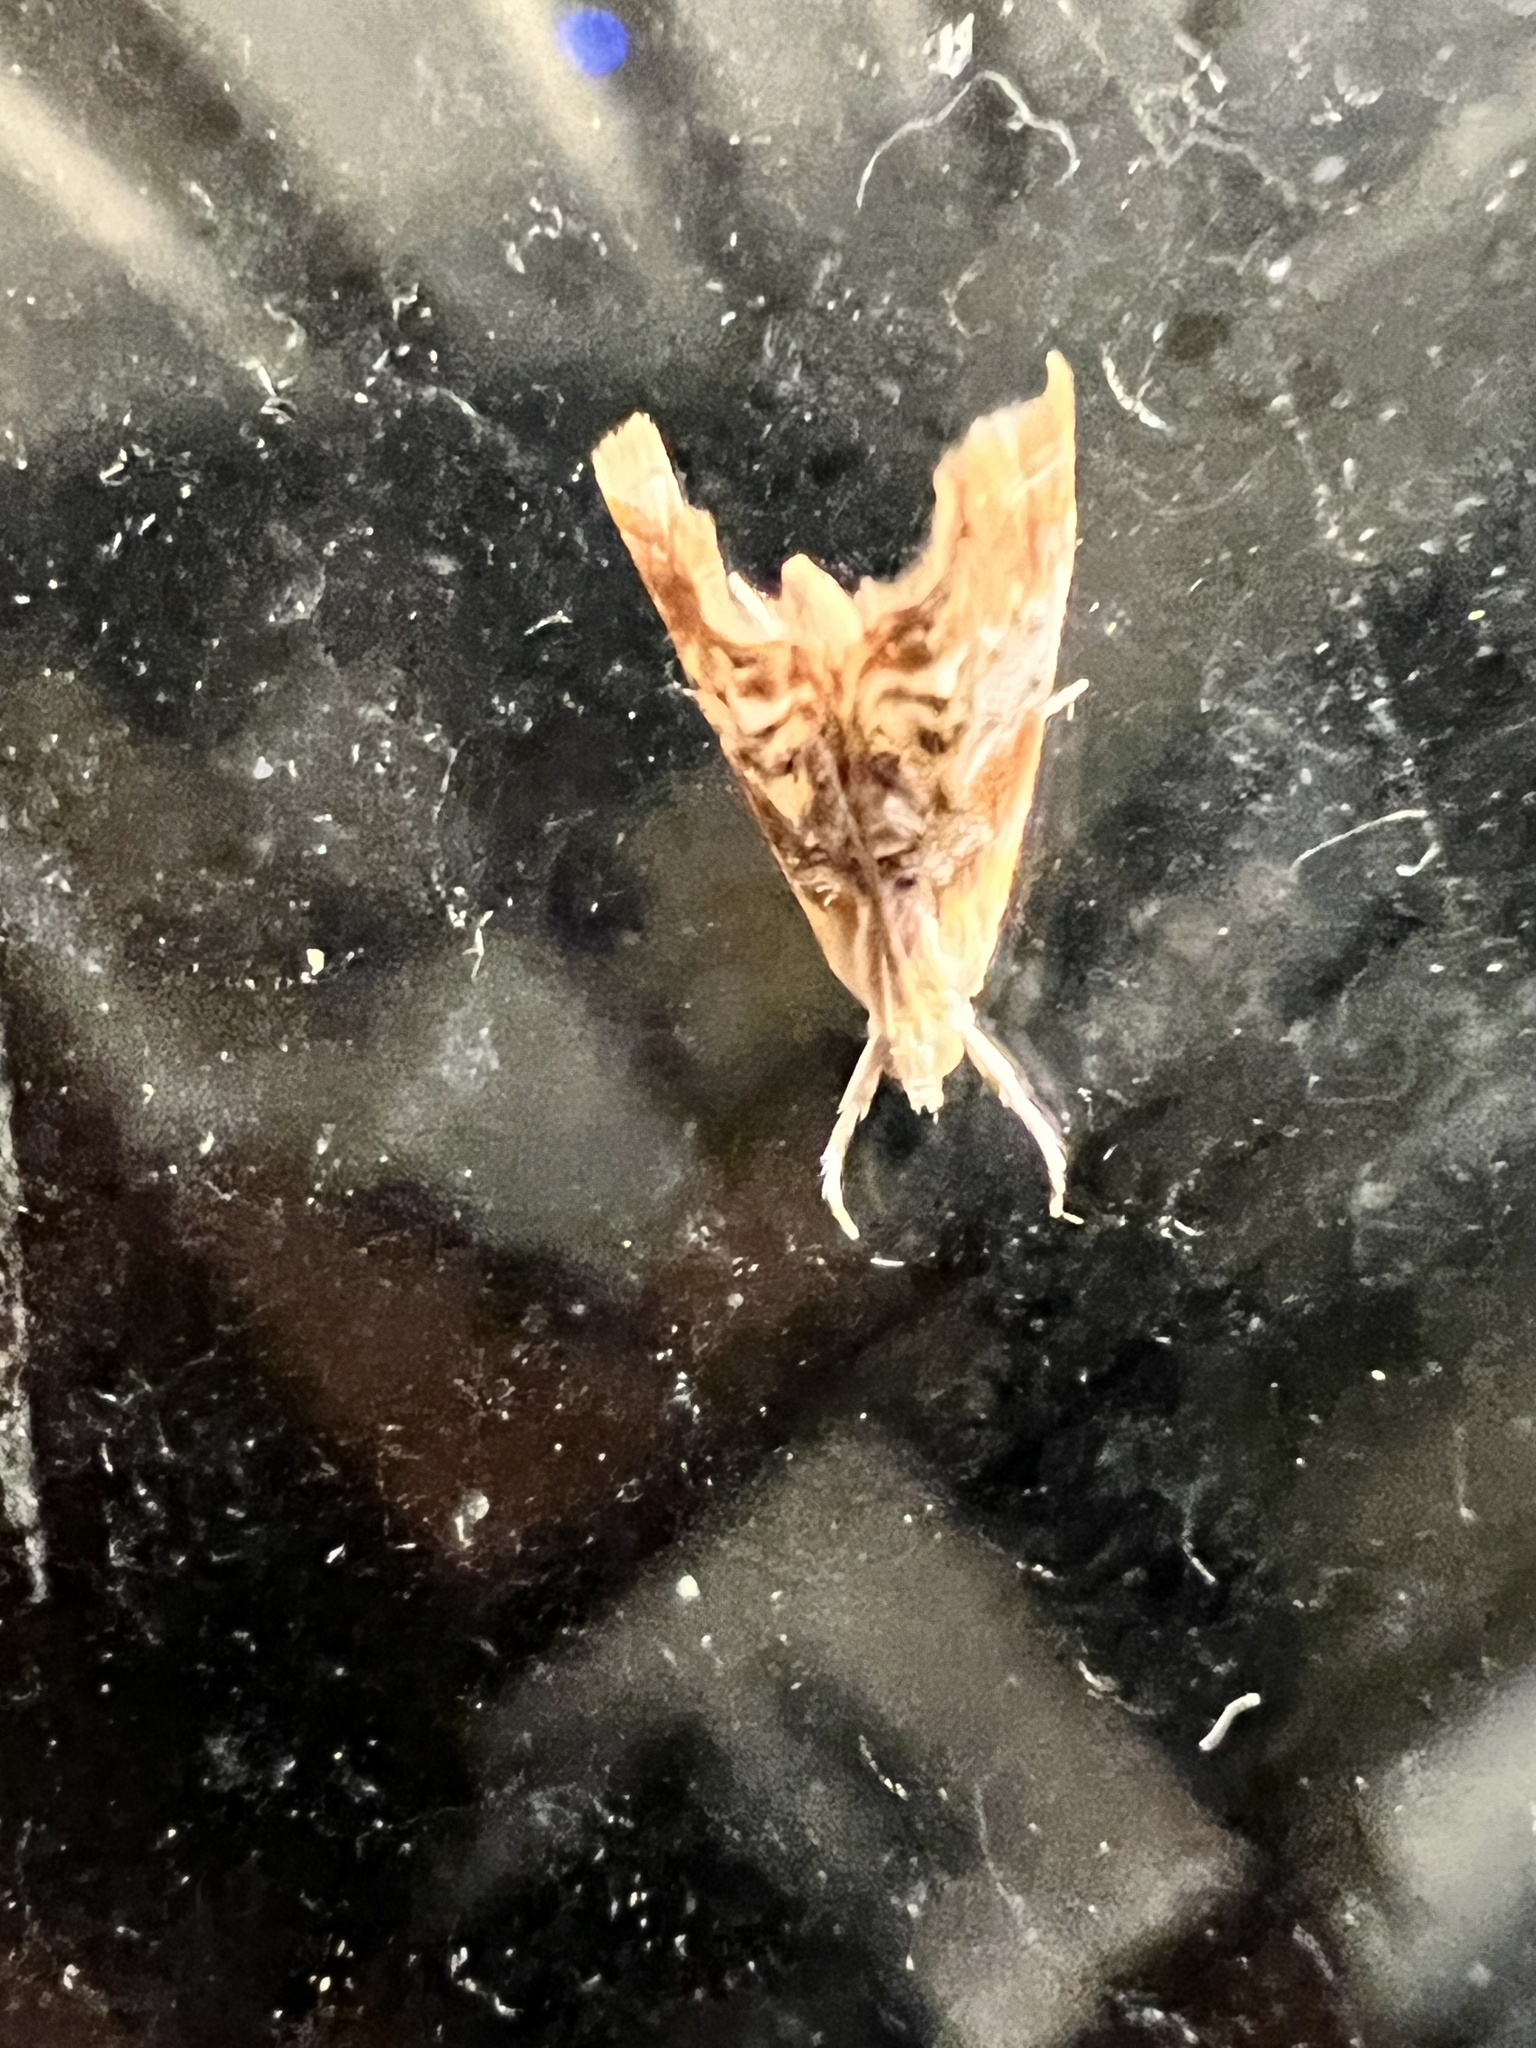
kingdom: Animalia
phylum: Arthropoda
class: Insecta
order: Lepidoptera
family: Crambidae
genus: Dicymolomia
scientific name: Dicymolomia julianalis
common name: Julia's dicymolomia moth
